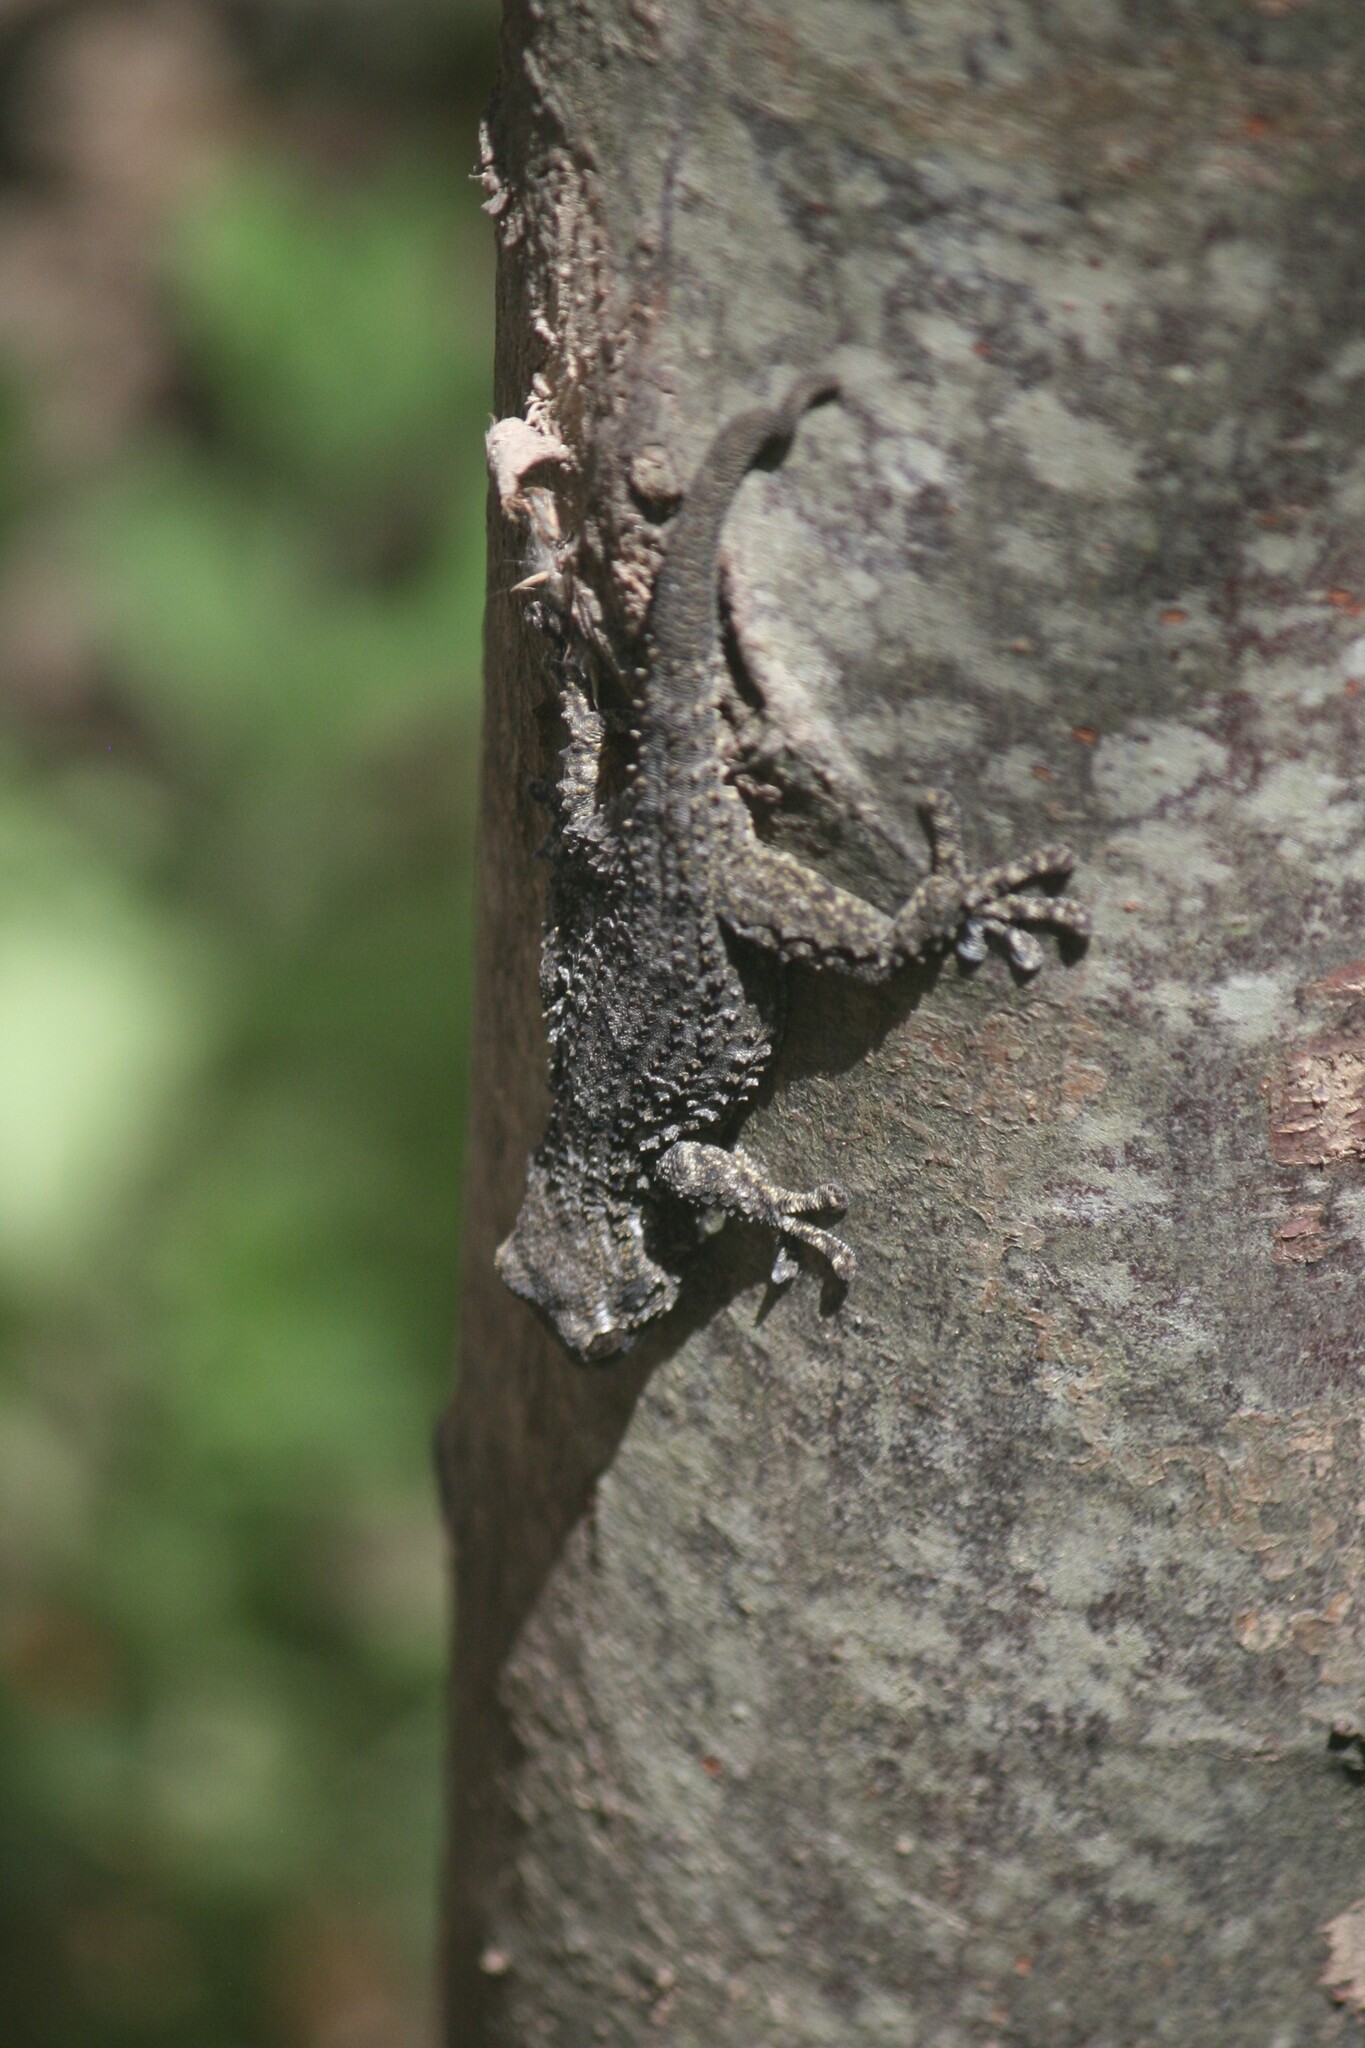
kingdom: Animalia
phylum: Chordata
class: Squamata
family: Phyllodactylidae
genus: Tarentola
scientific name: Tarentola mauritanica
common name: Moorish gecko
